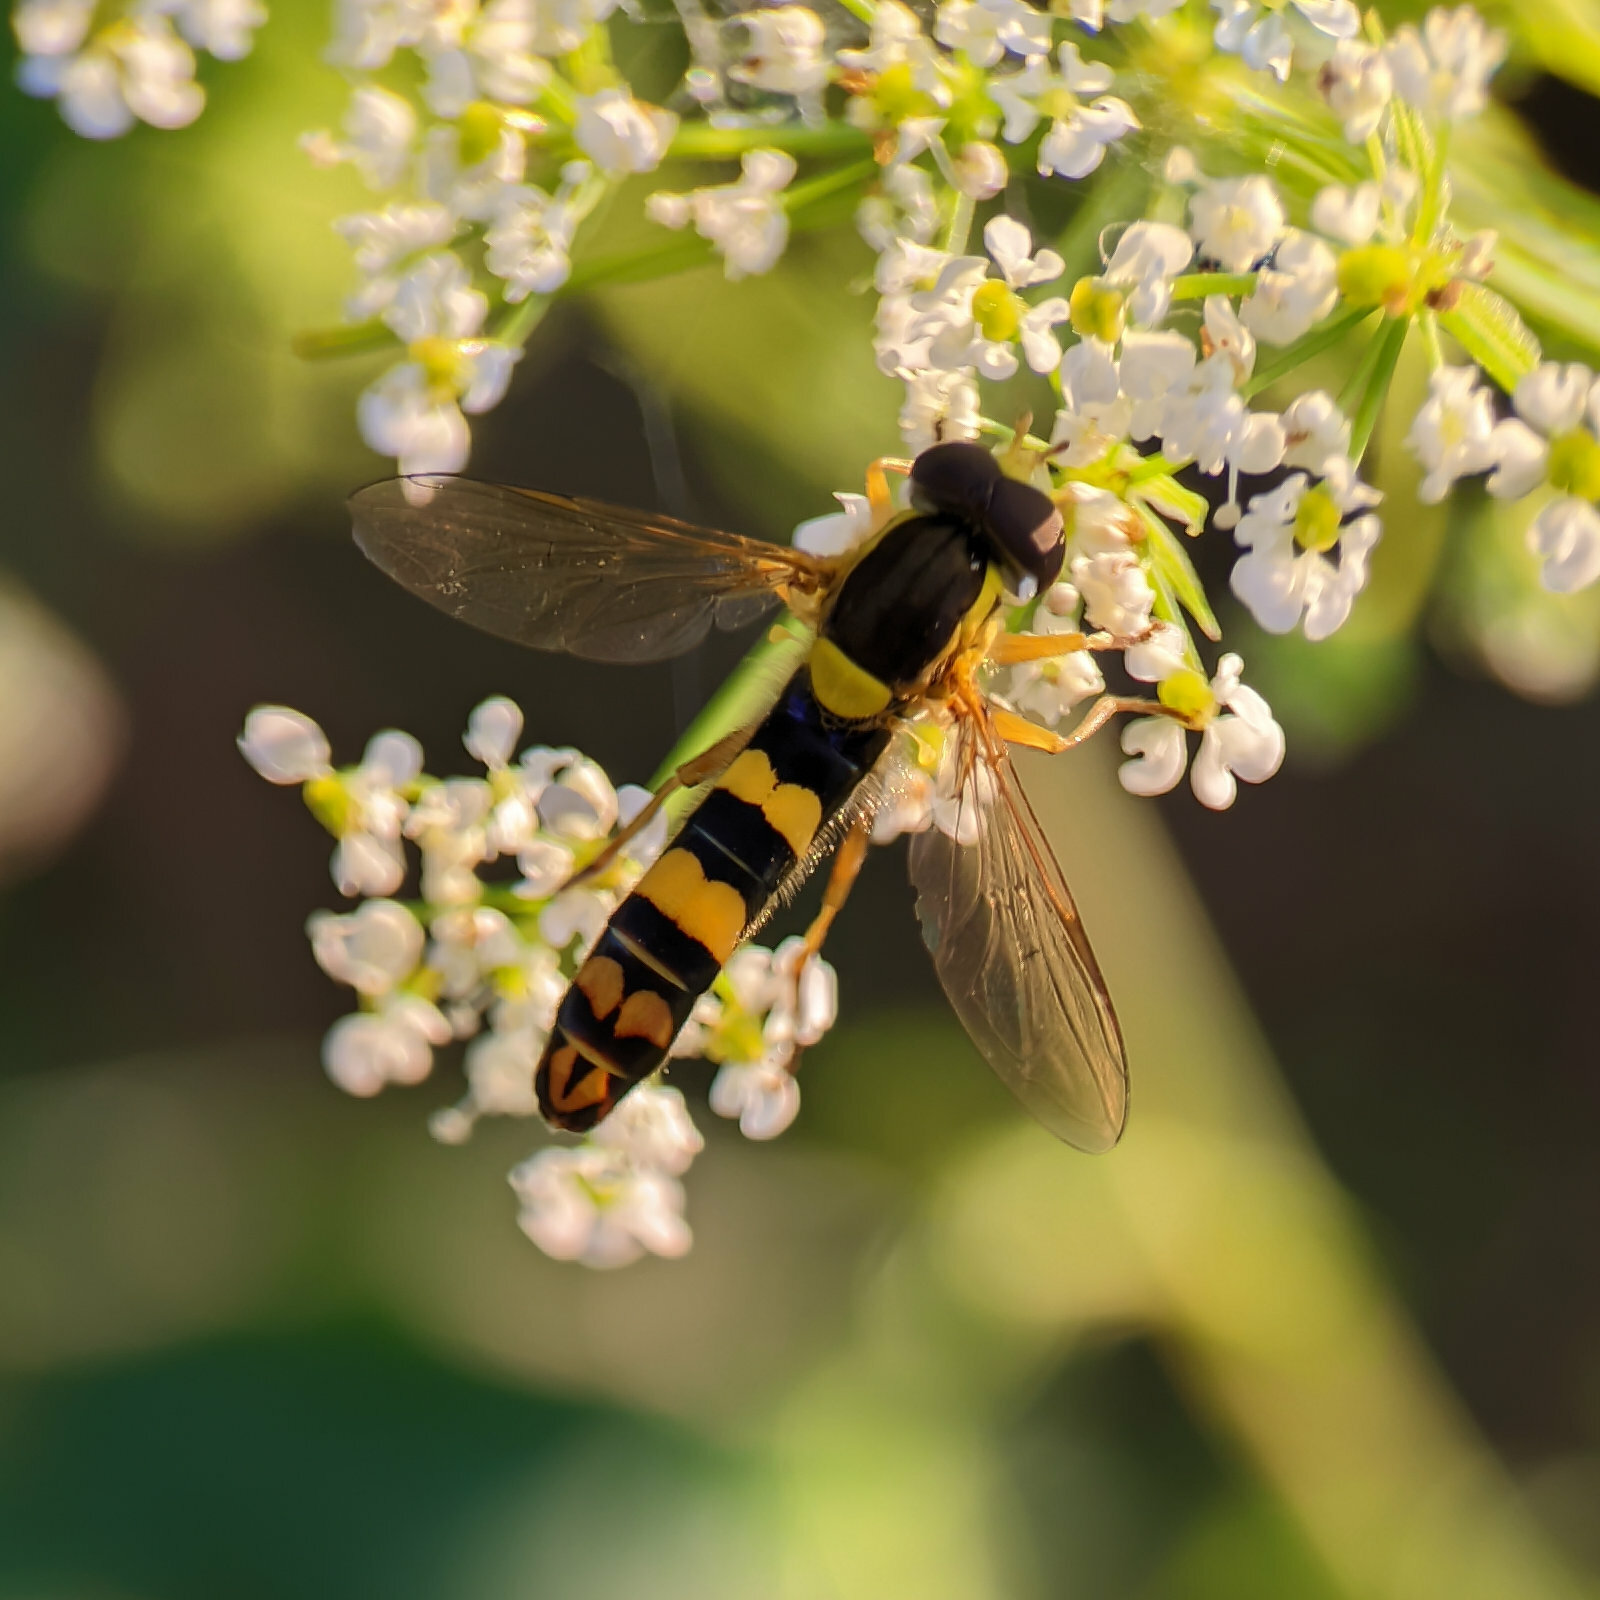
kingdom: Animalia
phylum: Arthropoda
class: Insecta
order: Diptera
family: Syrphidae
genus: Sphaerophoria
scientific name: Sphaerophoria scripta
